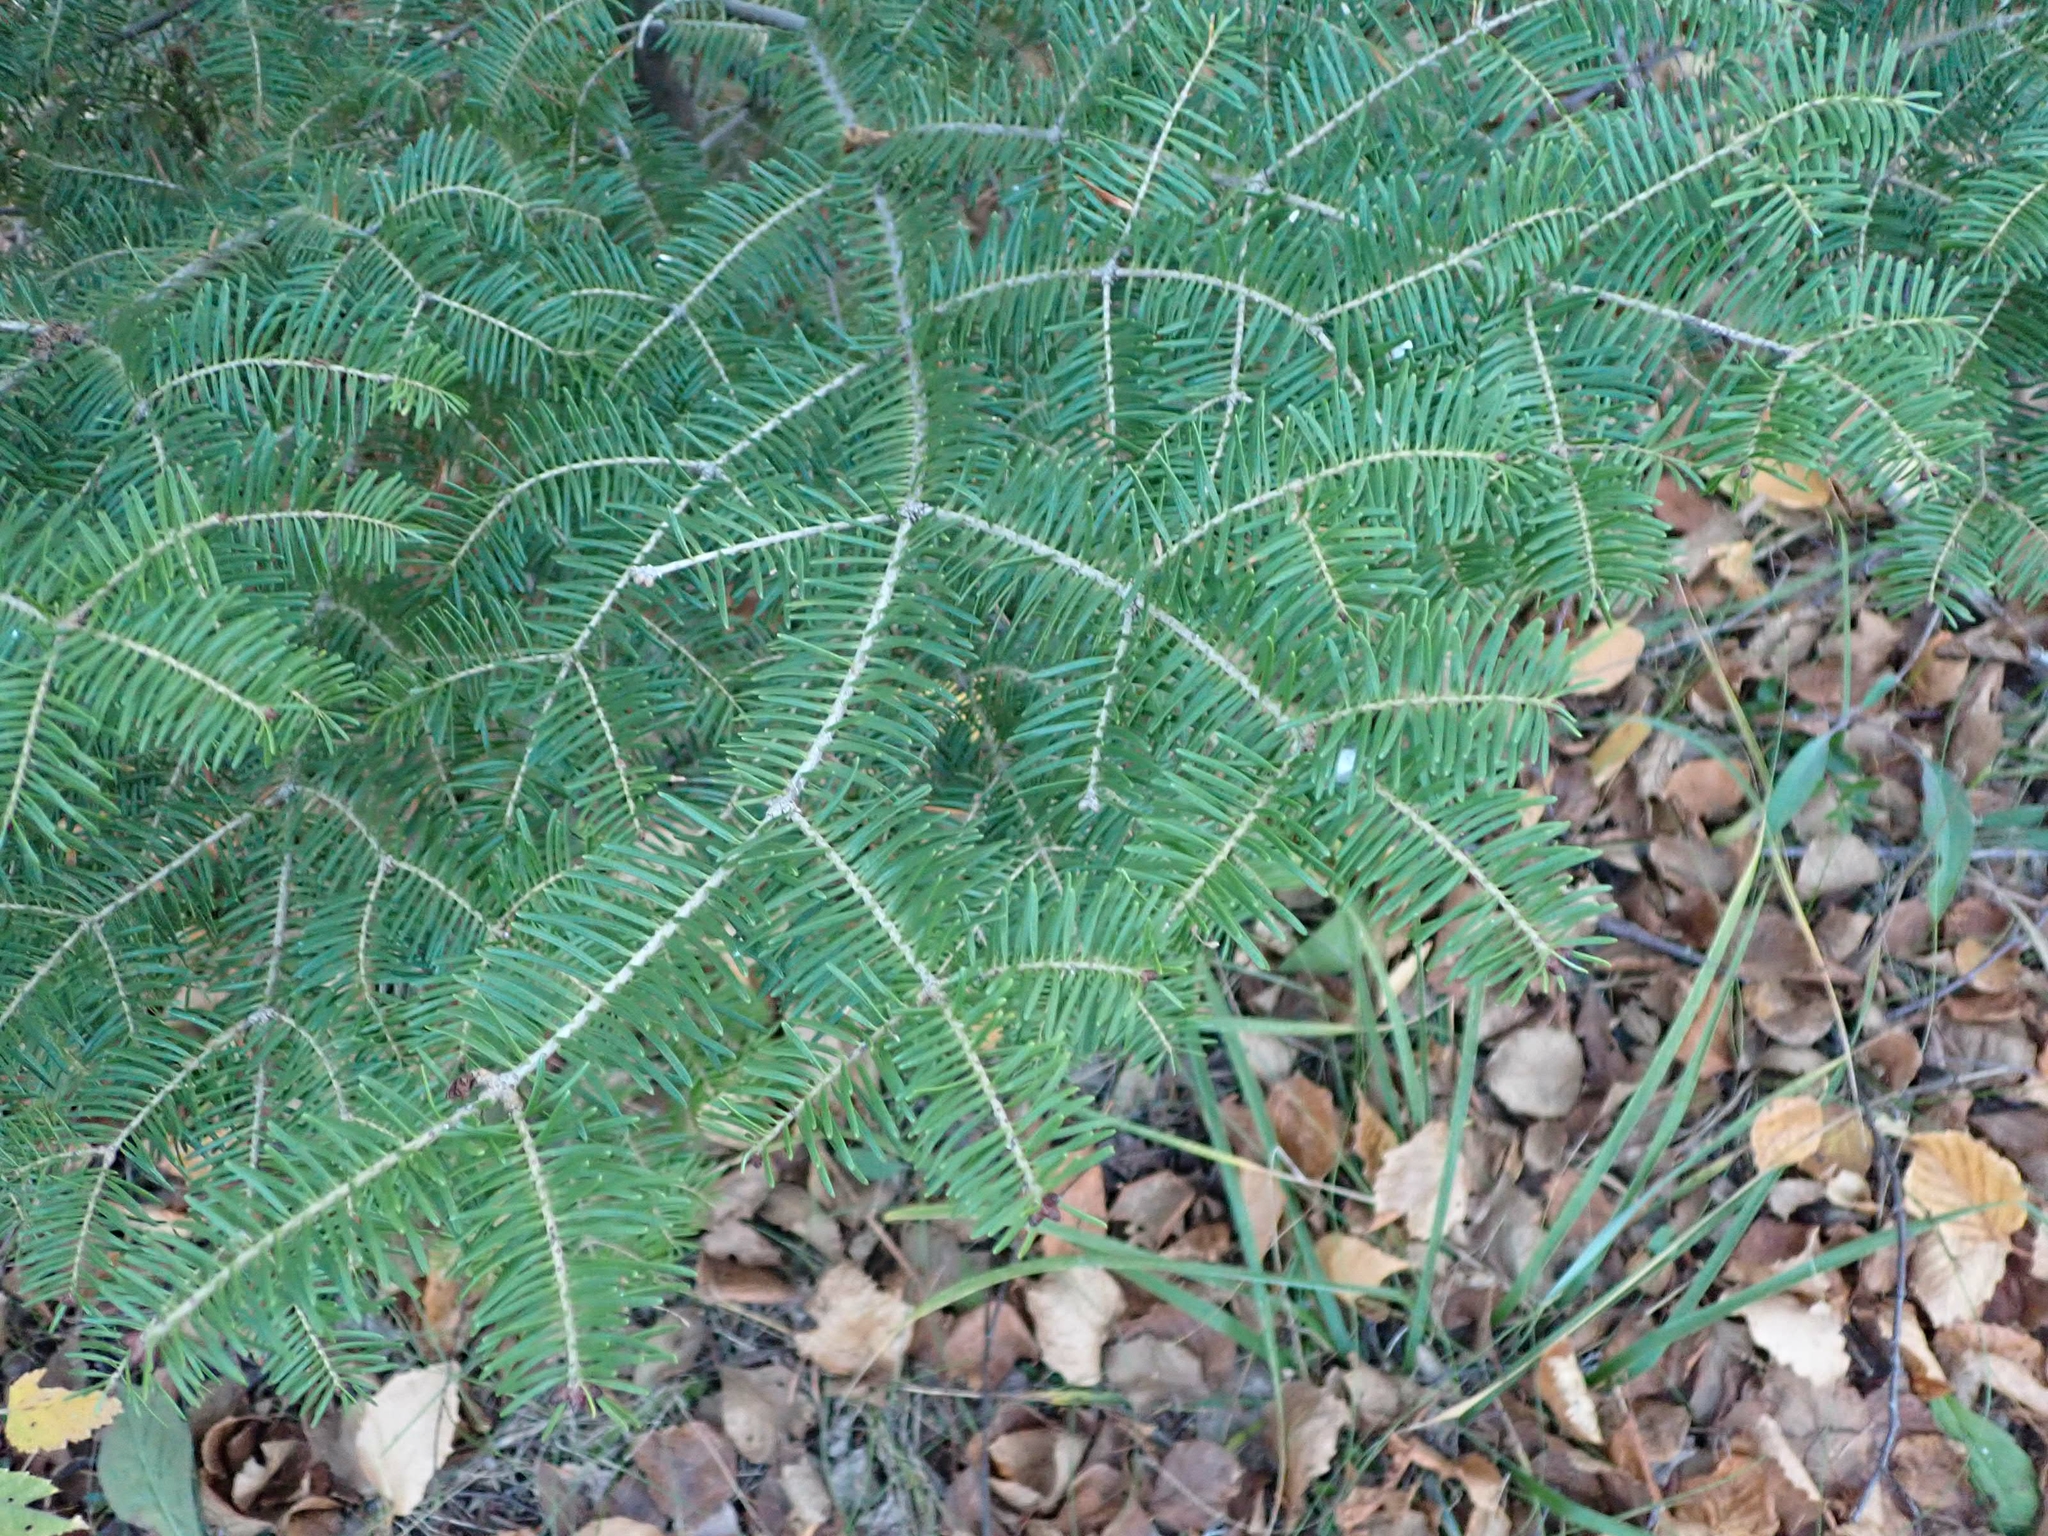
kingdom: Plantae
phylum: Tracheophyta
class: Pinopsida
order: Pinales
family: Pinaceae
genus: Abies
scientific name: Abies balsamea
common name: Balsam fir
